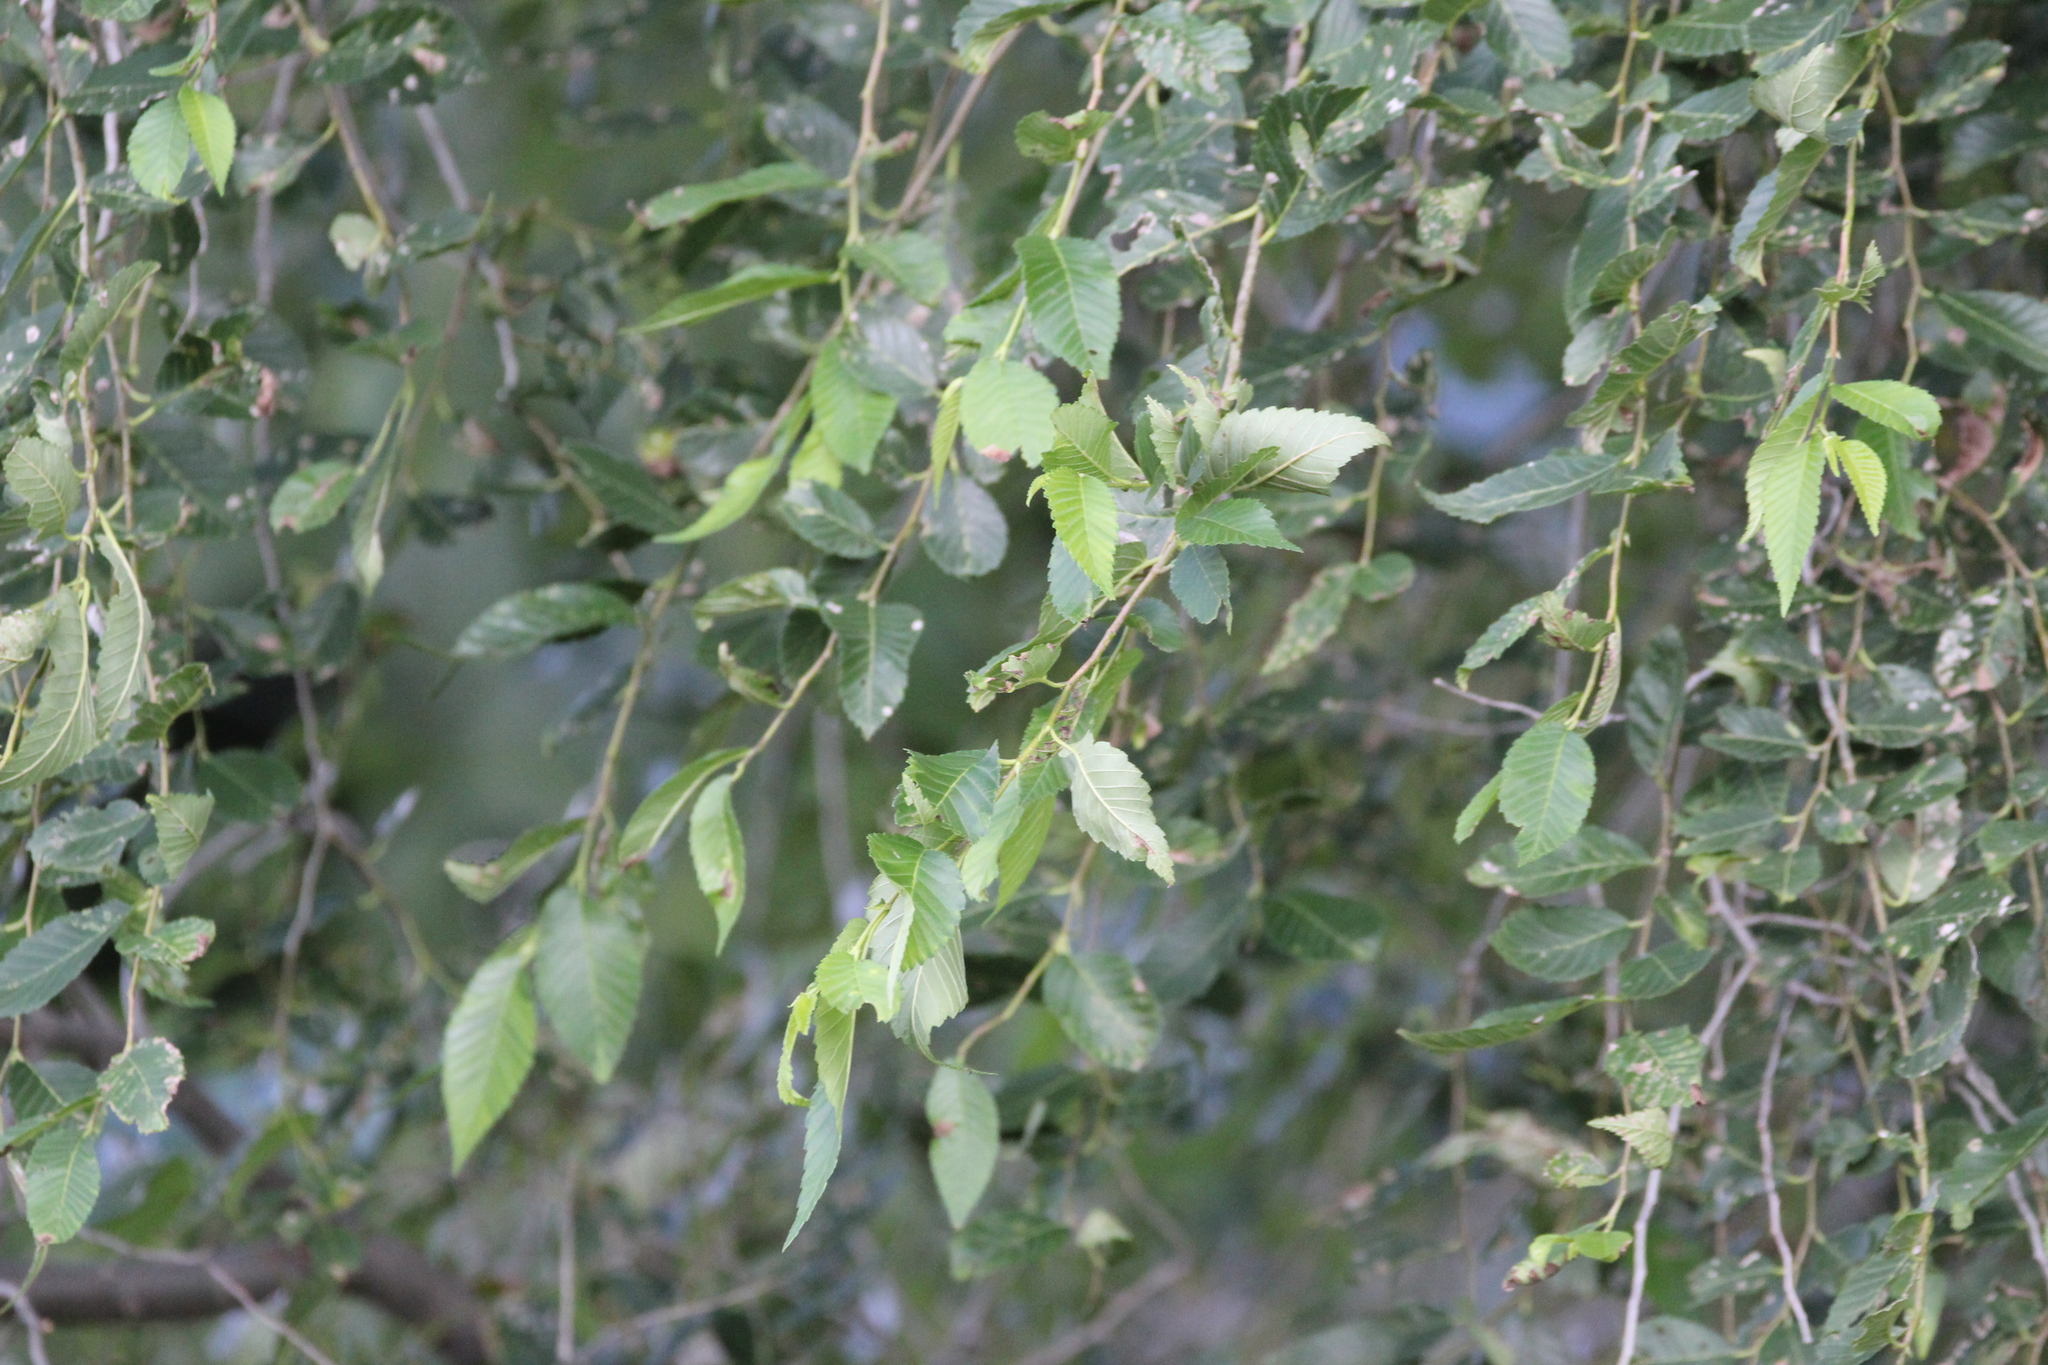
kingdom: Plantae
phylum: Tracheophyta
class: Magnoliopsida
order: Rosales
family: Ulmaceae
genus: Ulmus
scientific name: Ulmus pumila
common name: Siberian elm
